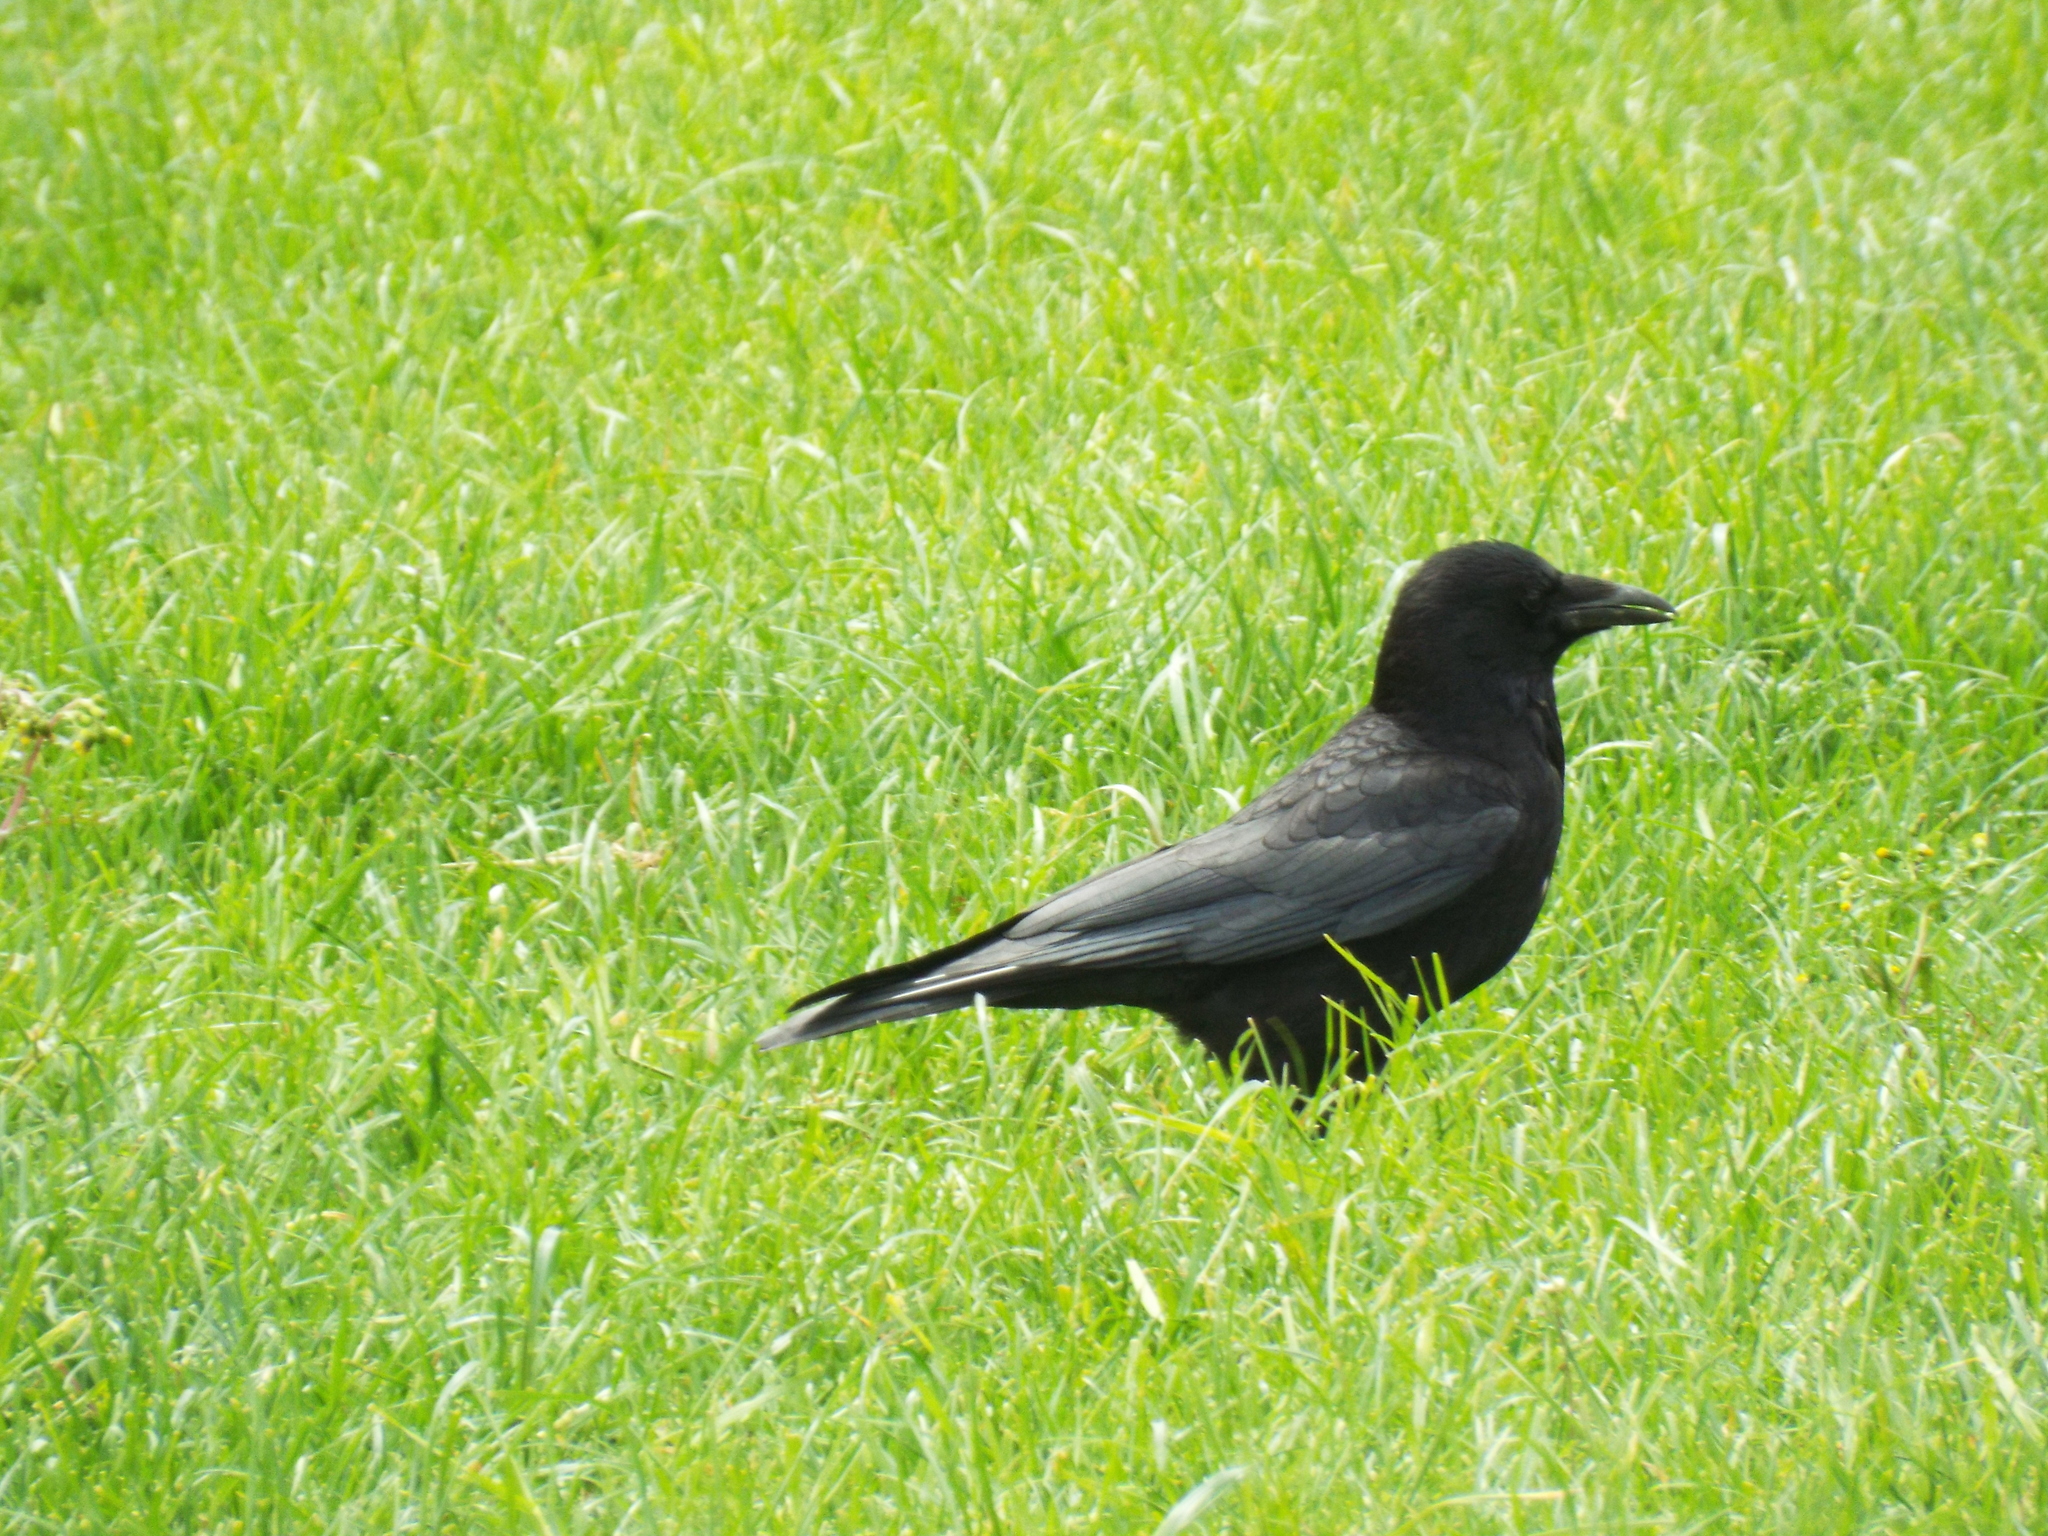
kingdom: Animalia
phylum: Chordata
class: Aves
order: Passeriformes
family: Corvidae
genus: Corvus
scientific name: Corvus corone
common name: Carrion crow
